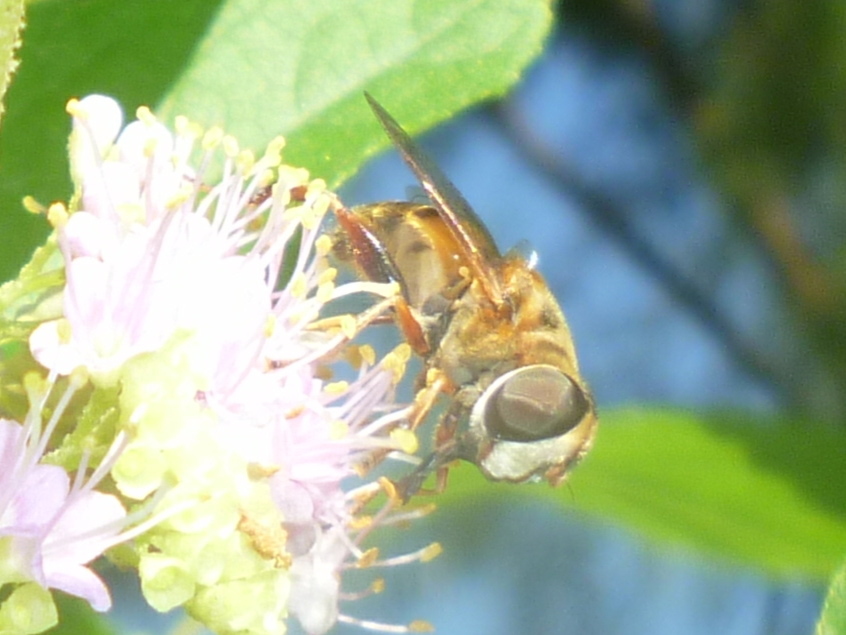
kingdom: Animalia
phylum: Arthropoda
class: Insecta
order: Diptera
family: Syrphidae
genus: Palpada
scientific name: Palpada vinetorum
